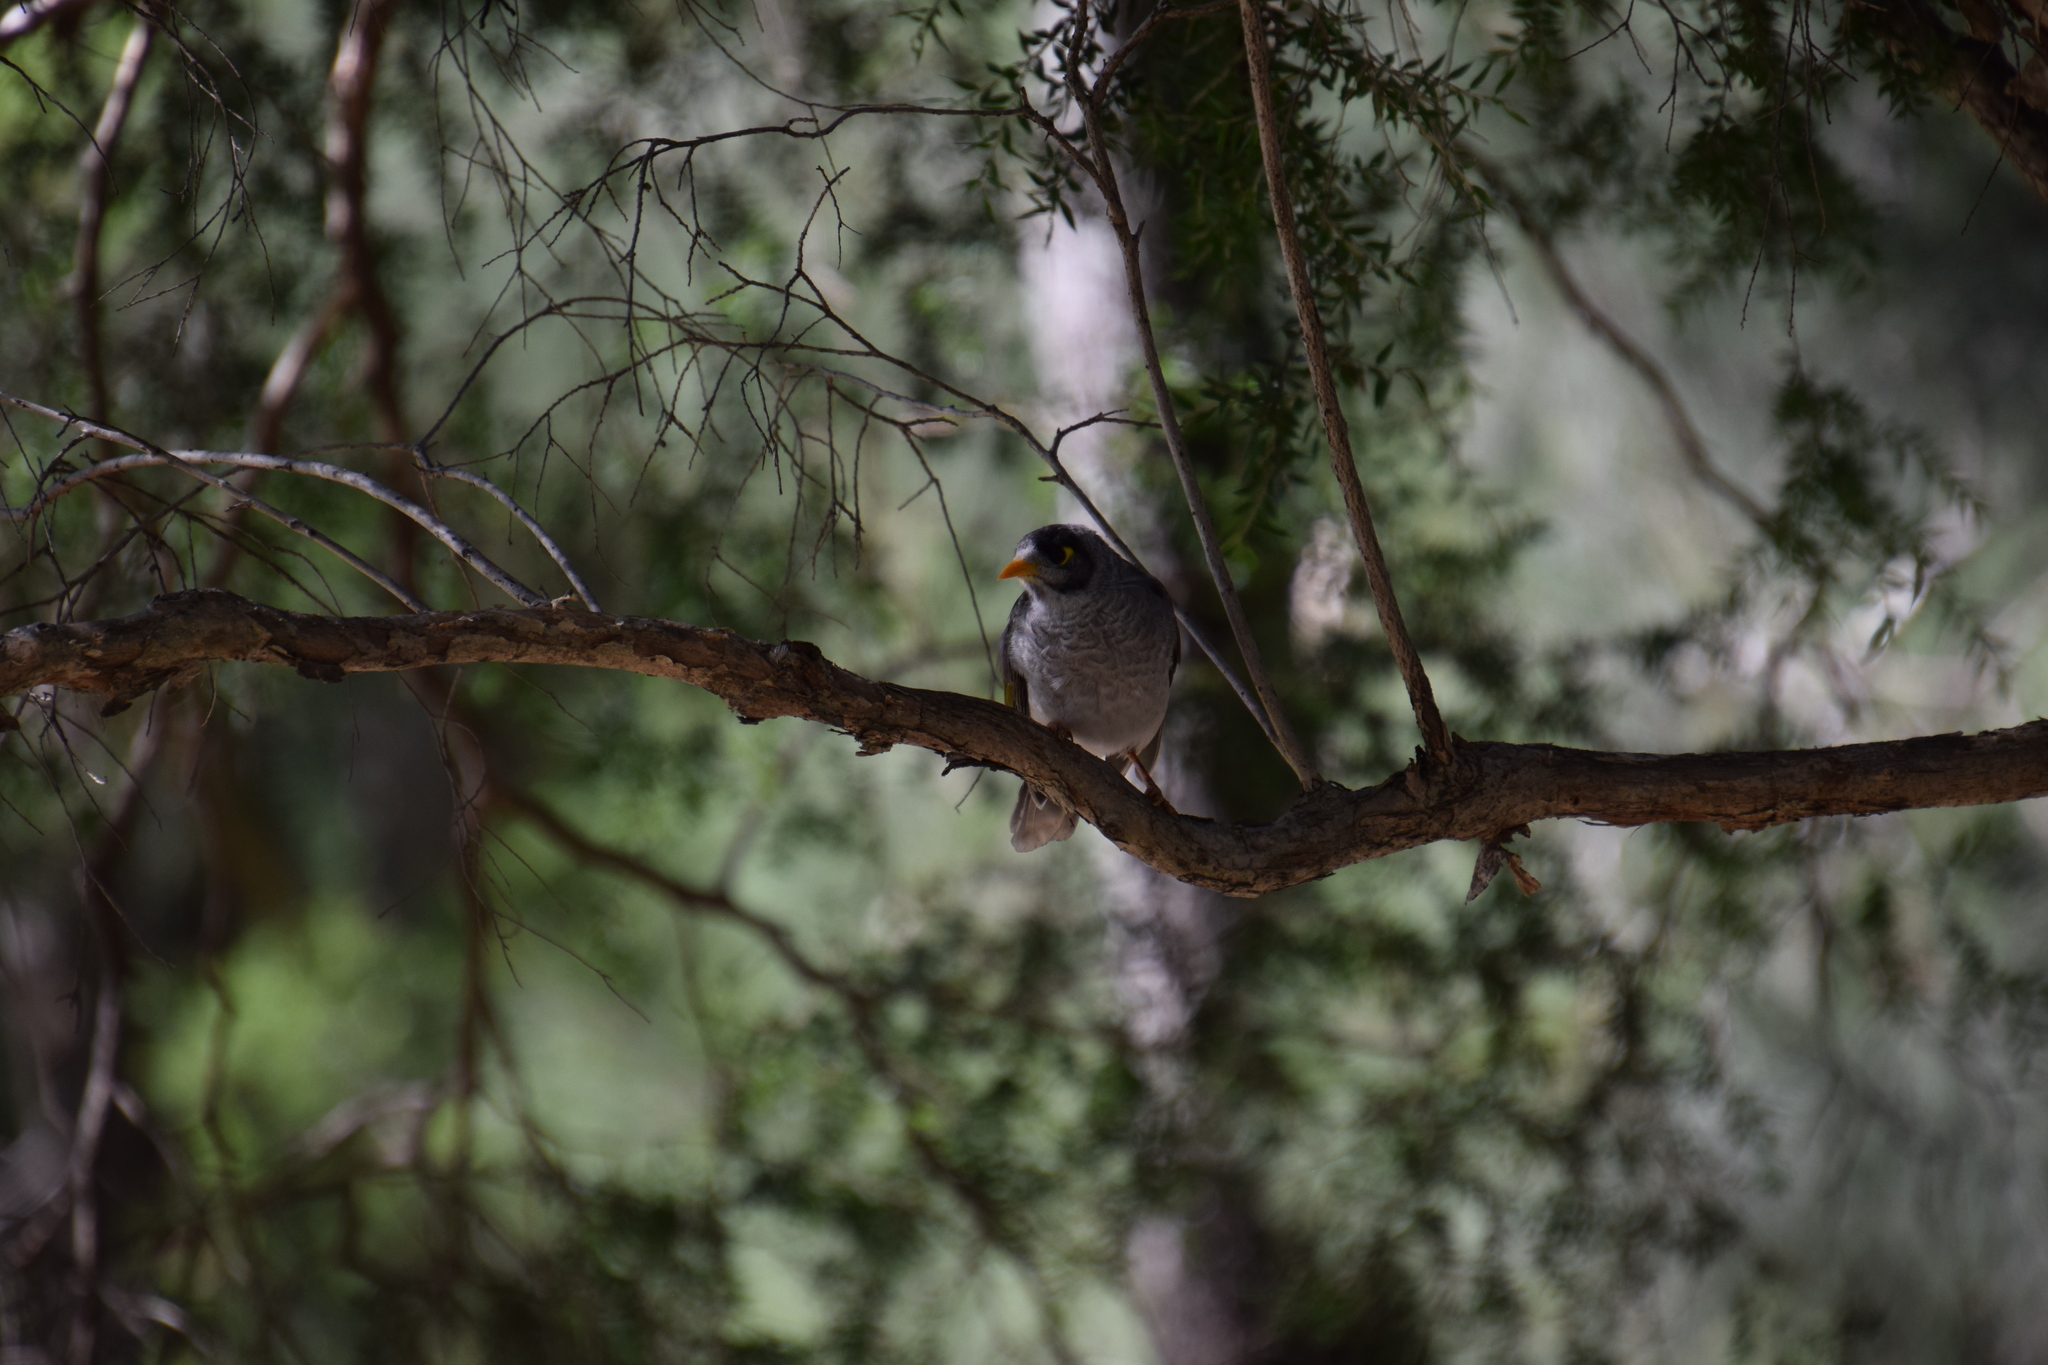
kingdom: Animalia
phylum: Chordata
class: Aves
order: Passeriformes
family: Meliphagidae
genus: Manorina
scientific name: Manorina melanocephala
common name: Noisy miner
